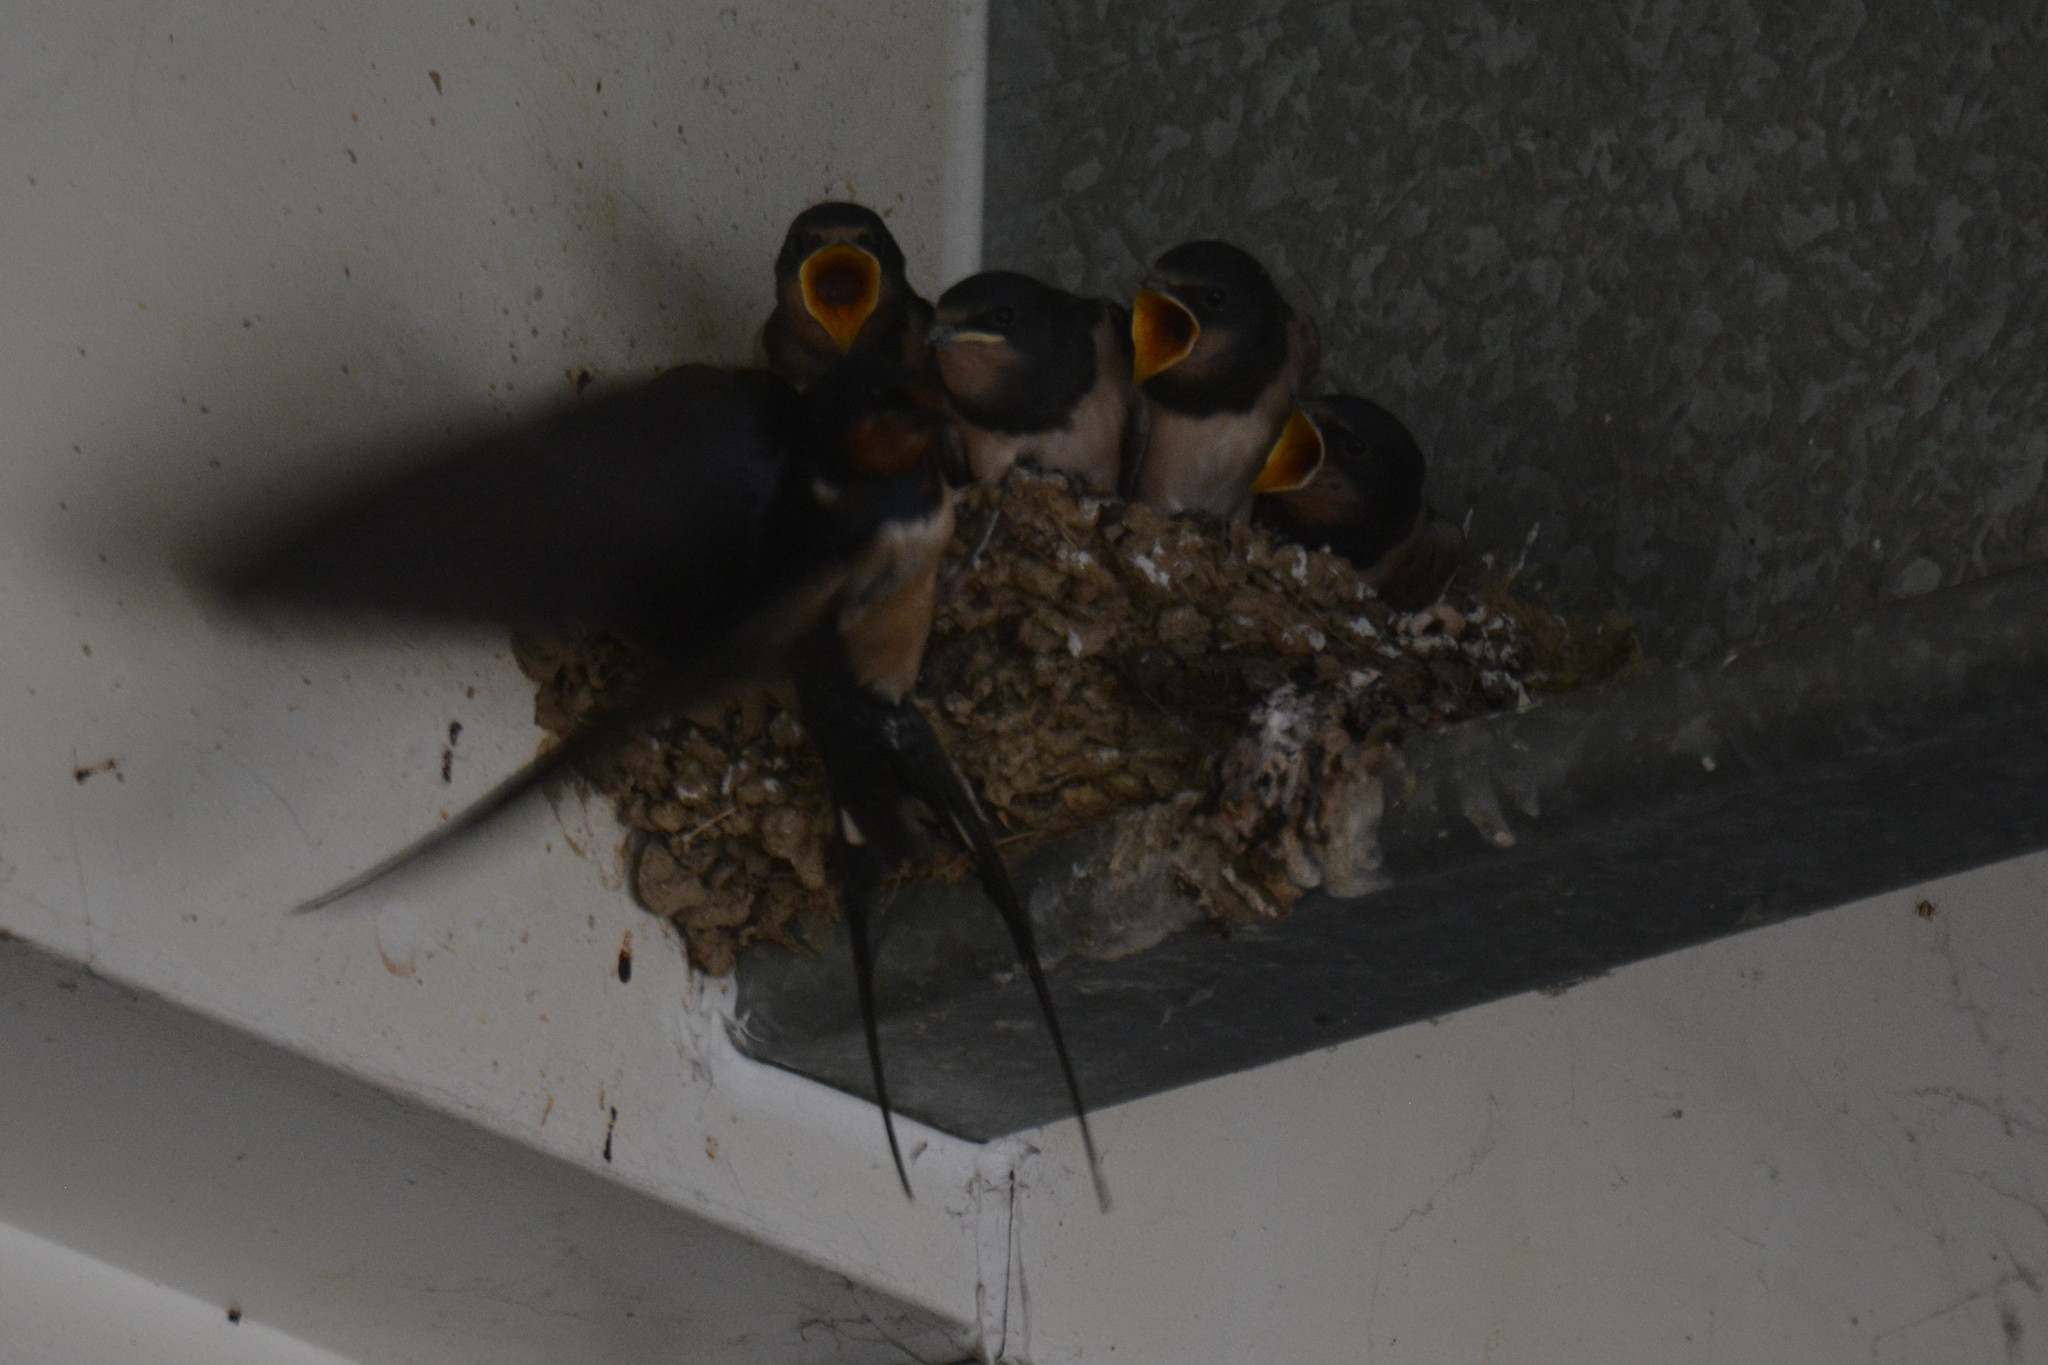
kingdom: Animalia
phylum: Chordata
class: Aves
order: Passeriformes
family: Hirundinidae
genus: Hirundo
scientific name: Hirundo rustica
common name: Barn swallow
